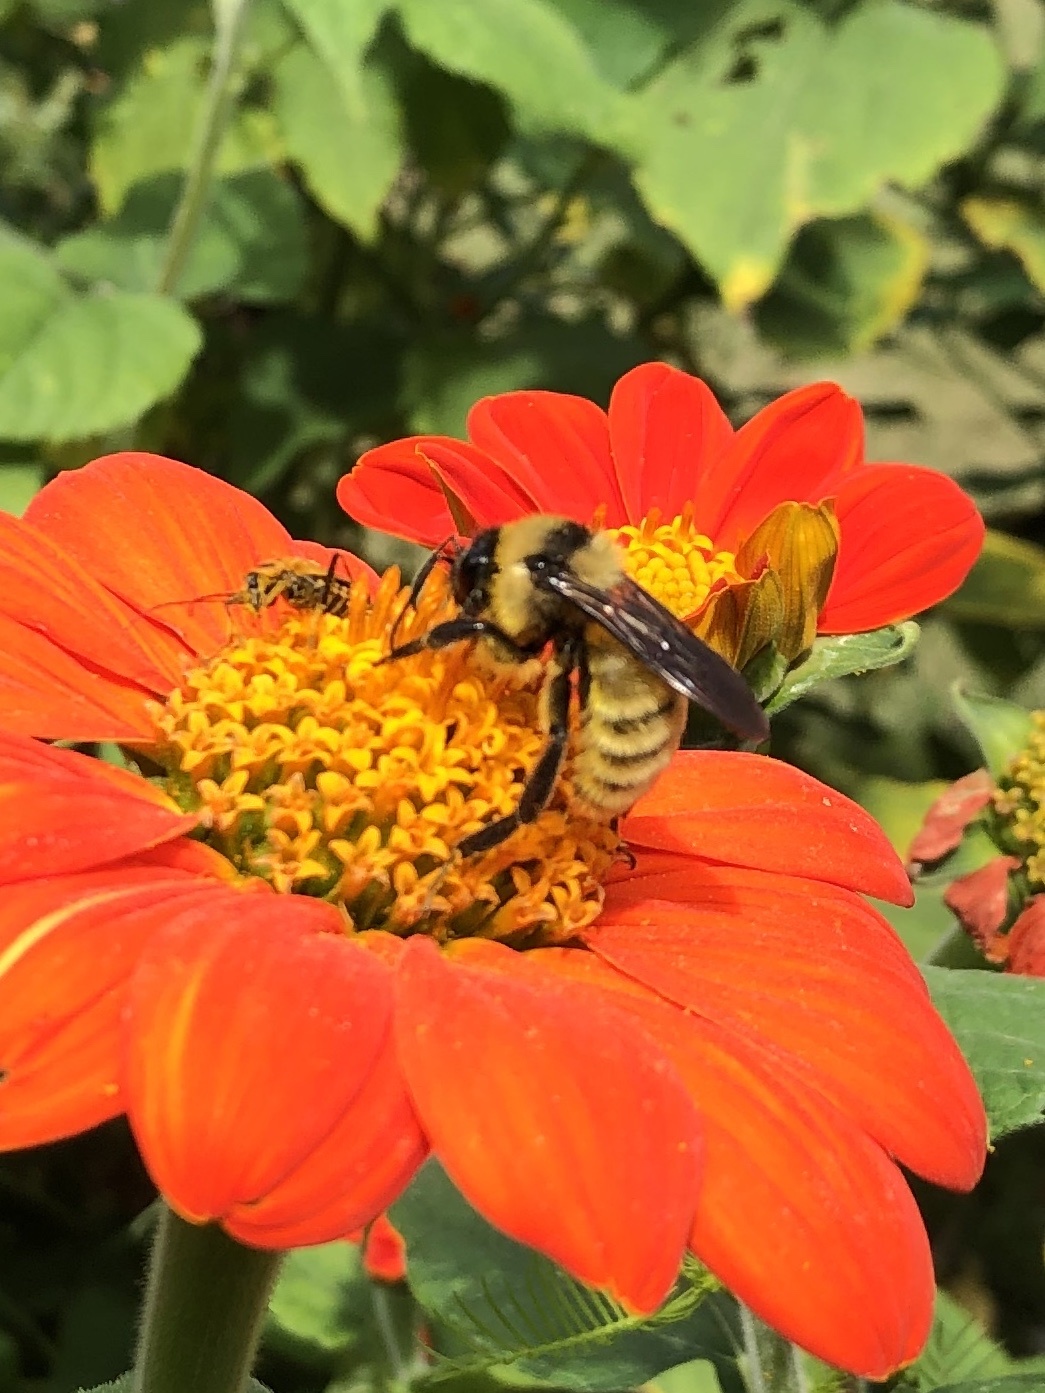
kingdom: Animalia
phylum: Arthropoda
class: Insecta
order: Hymenoptera
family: Apidae
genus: Bombus
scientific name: Bombus pensylvanicus
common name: Bumble bee
